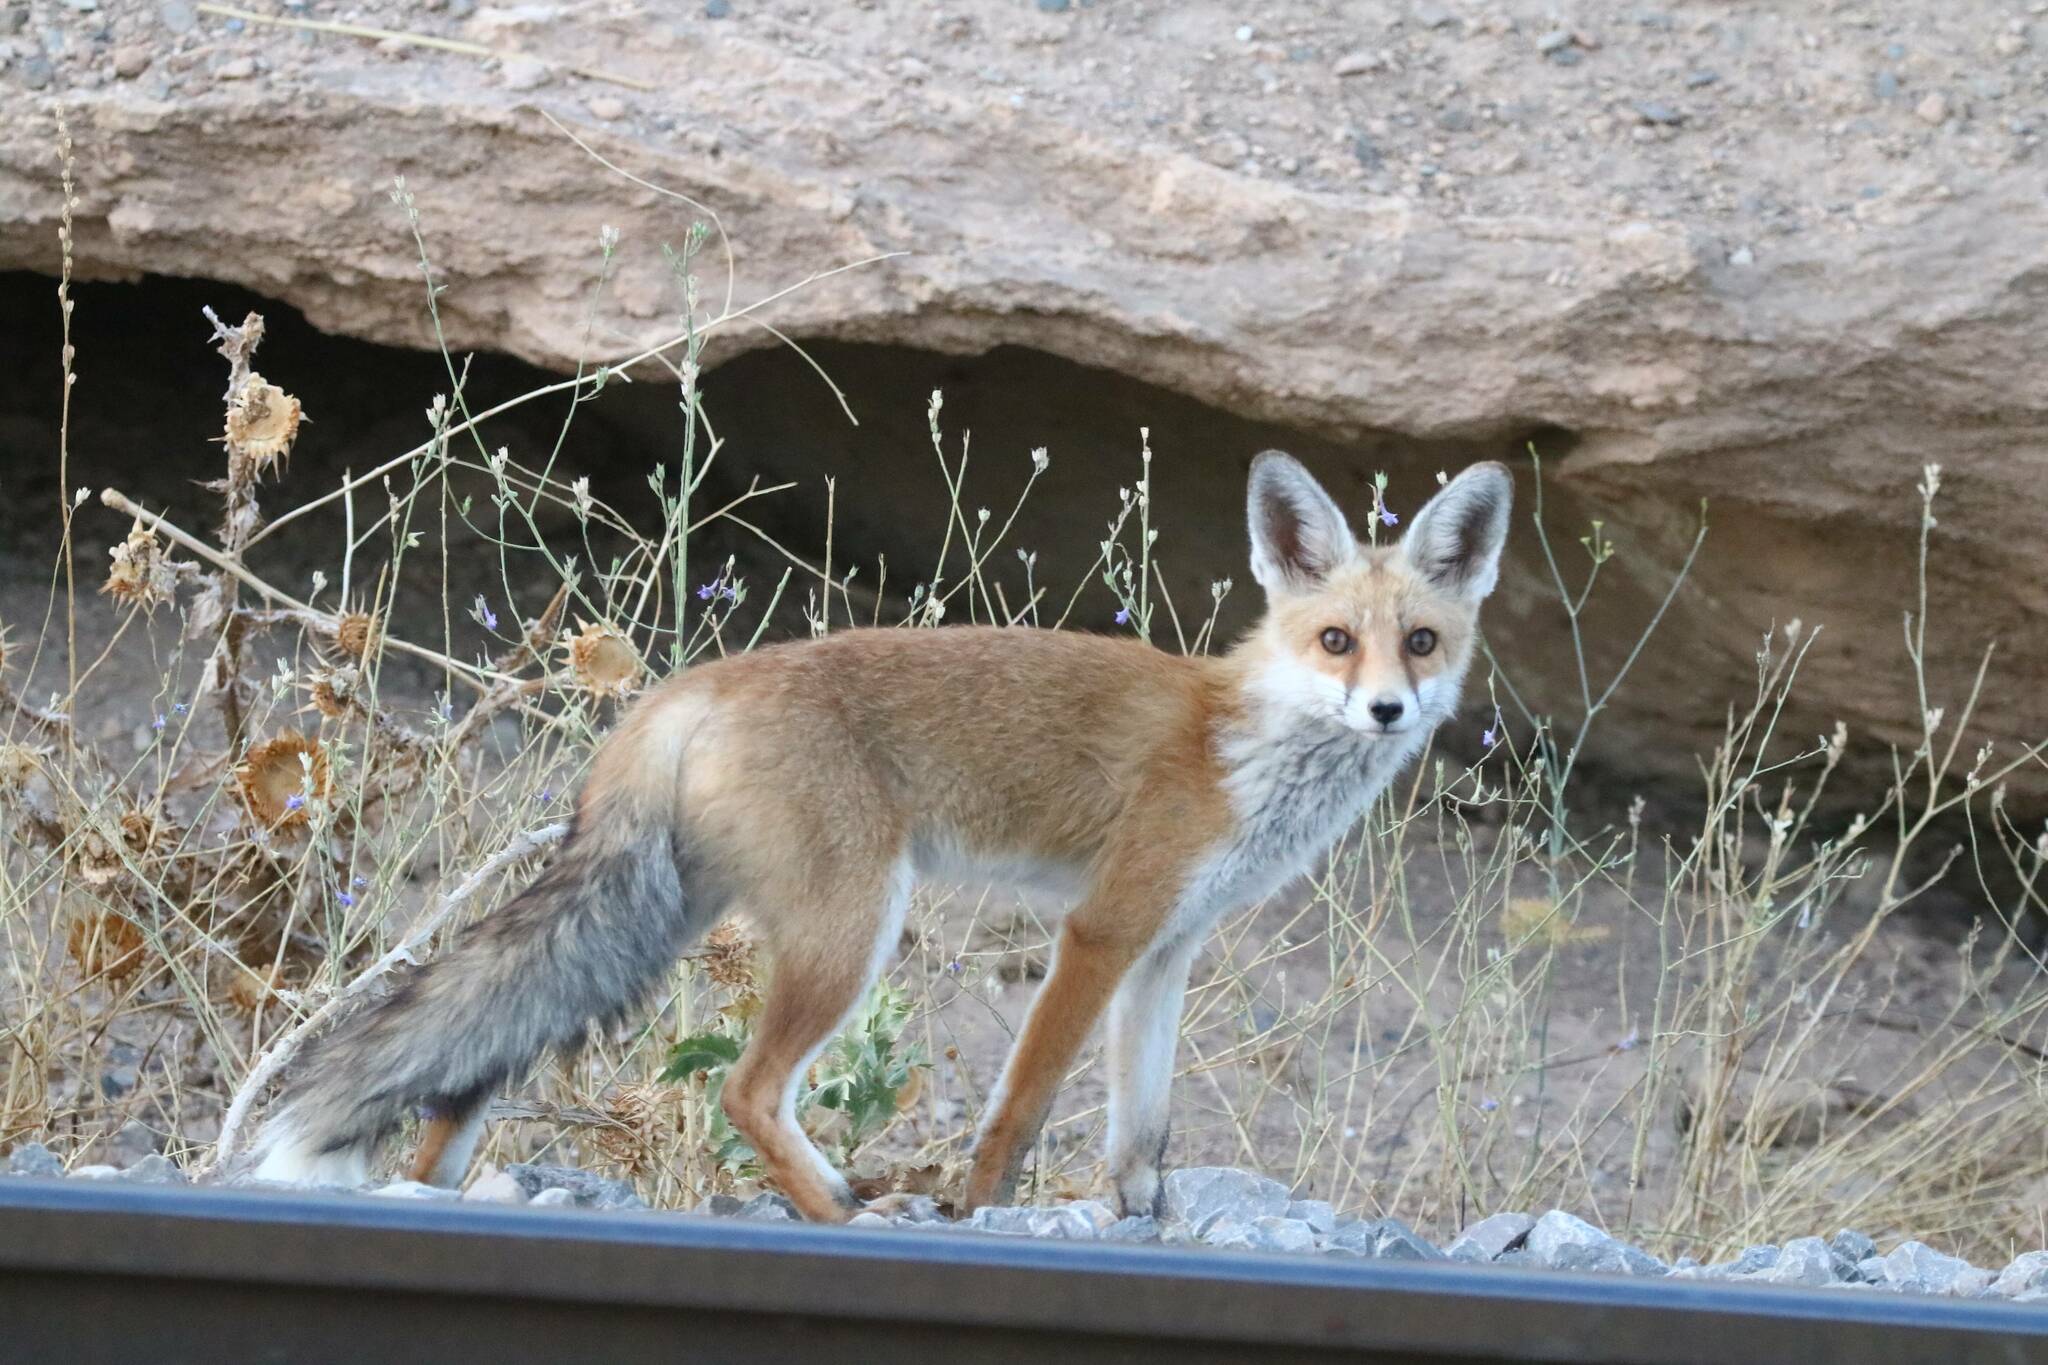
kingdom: Animalia
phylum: Chordata
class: Mammalia
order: Carnivora
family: Canidae
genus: Vulpes
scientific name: Vulpes vulpes
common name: Red fox
